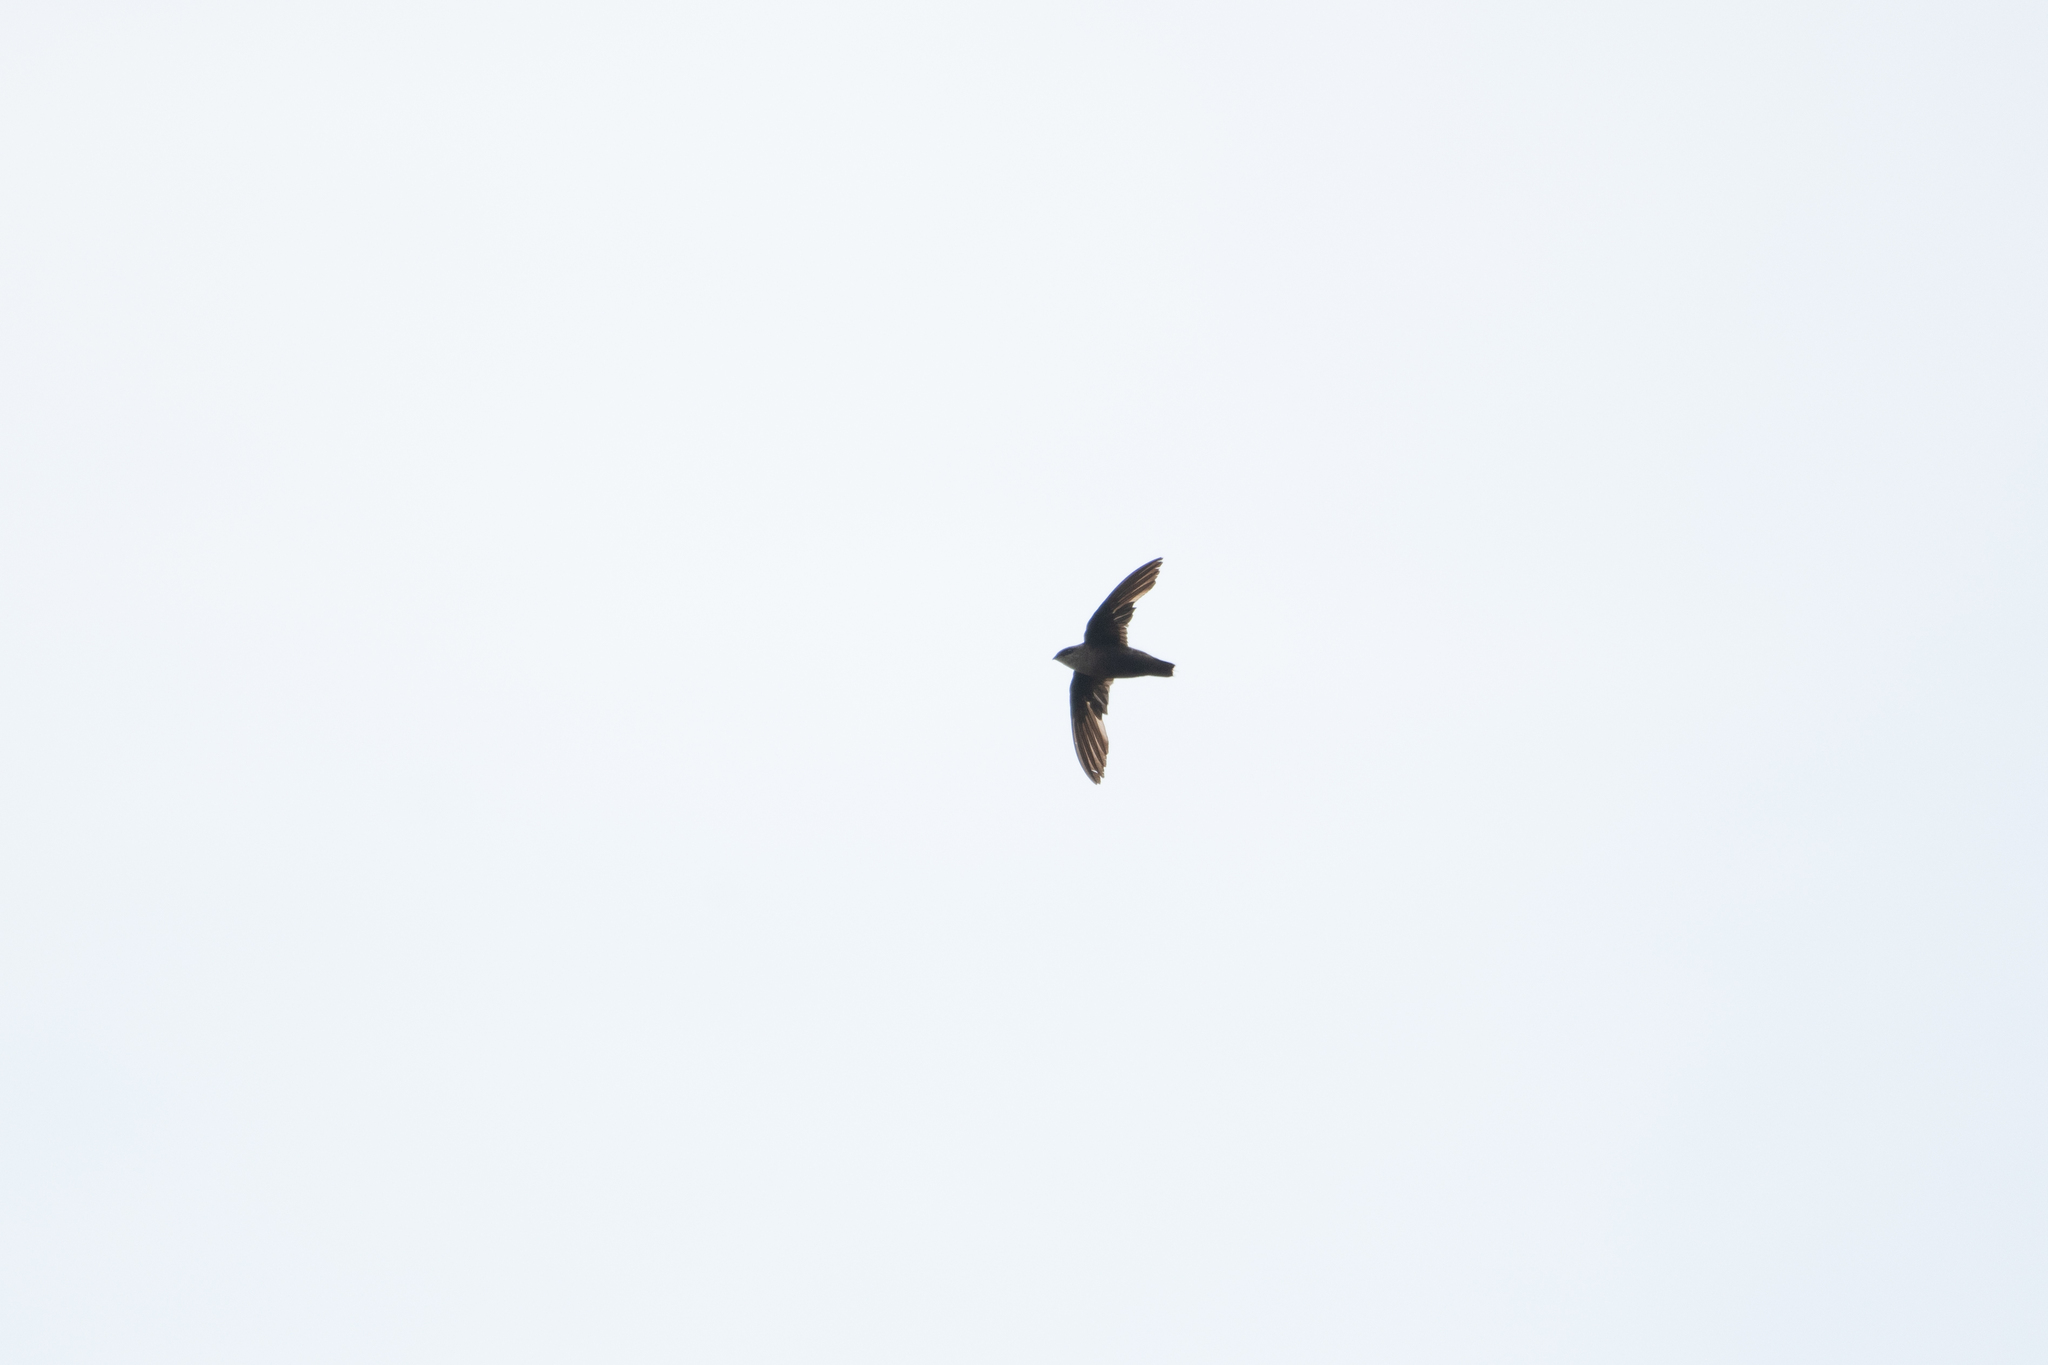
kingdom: Animalia
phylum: Chordata
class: Aves
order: Apodiformes
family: Apodidae
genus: Chaetura
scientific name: Chaetura pelagica
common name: Chimney swift
